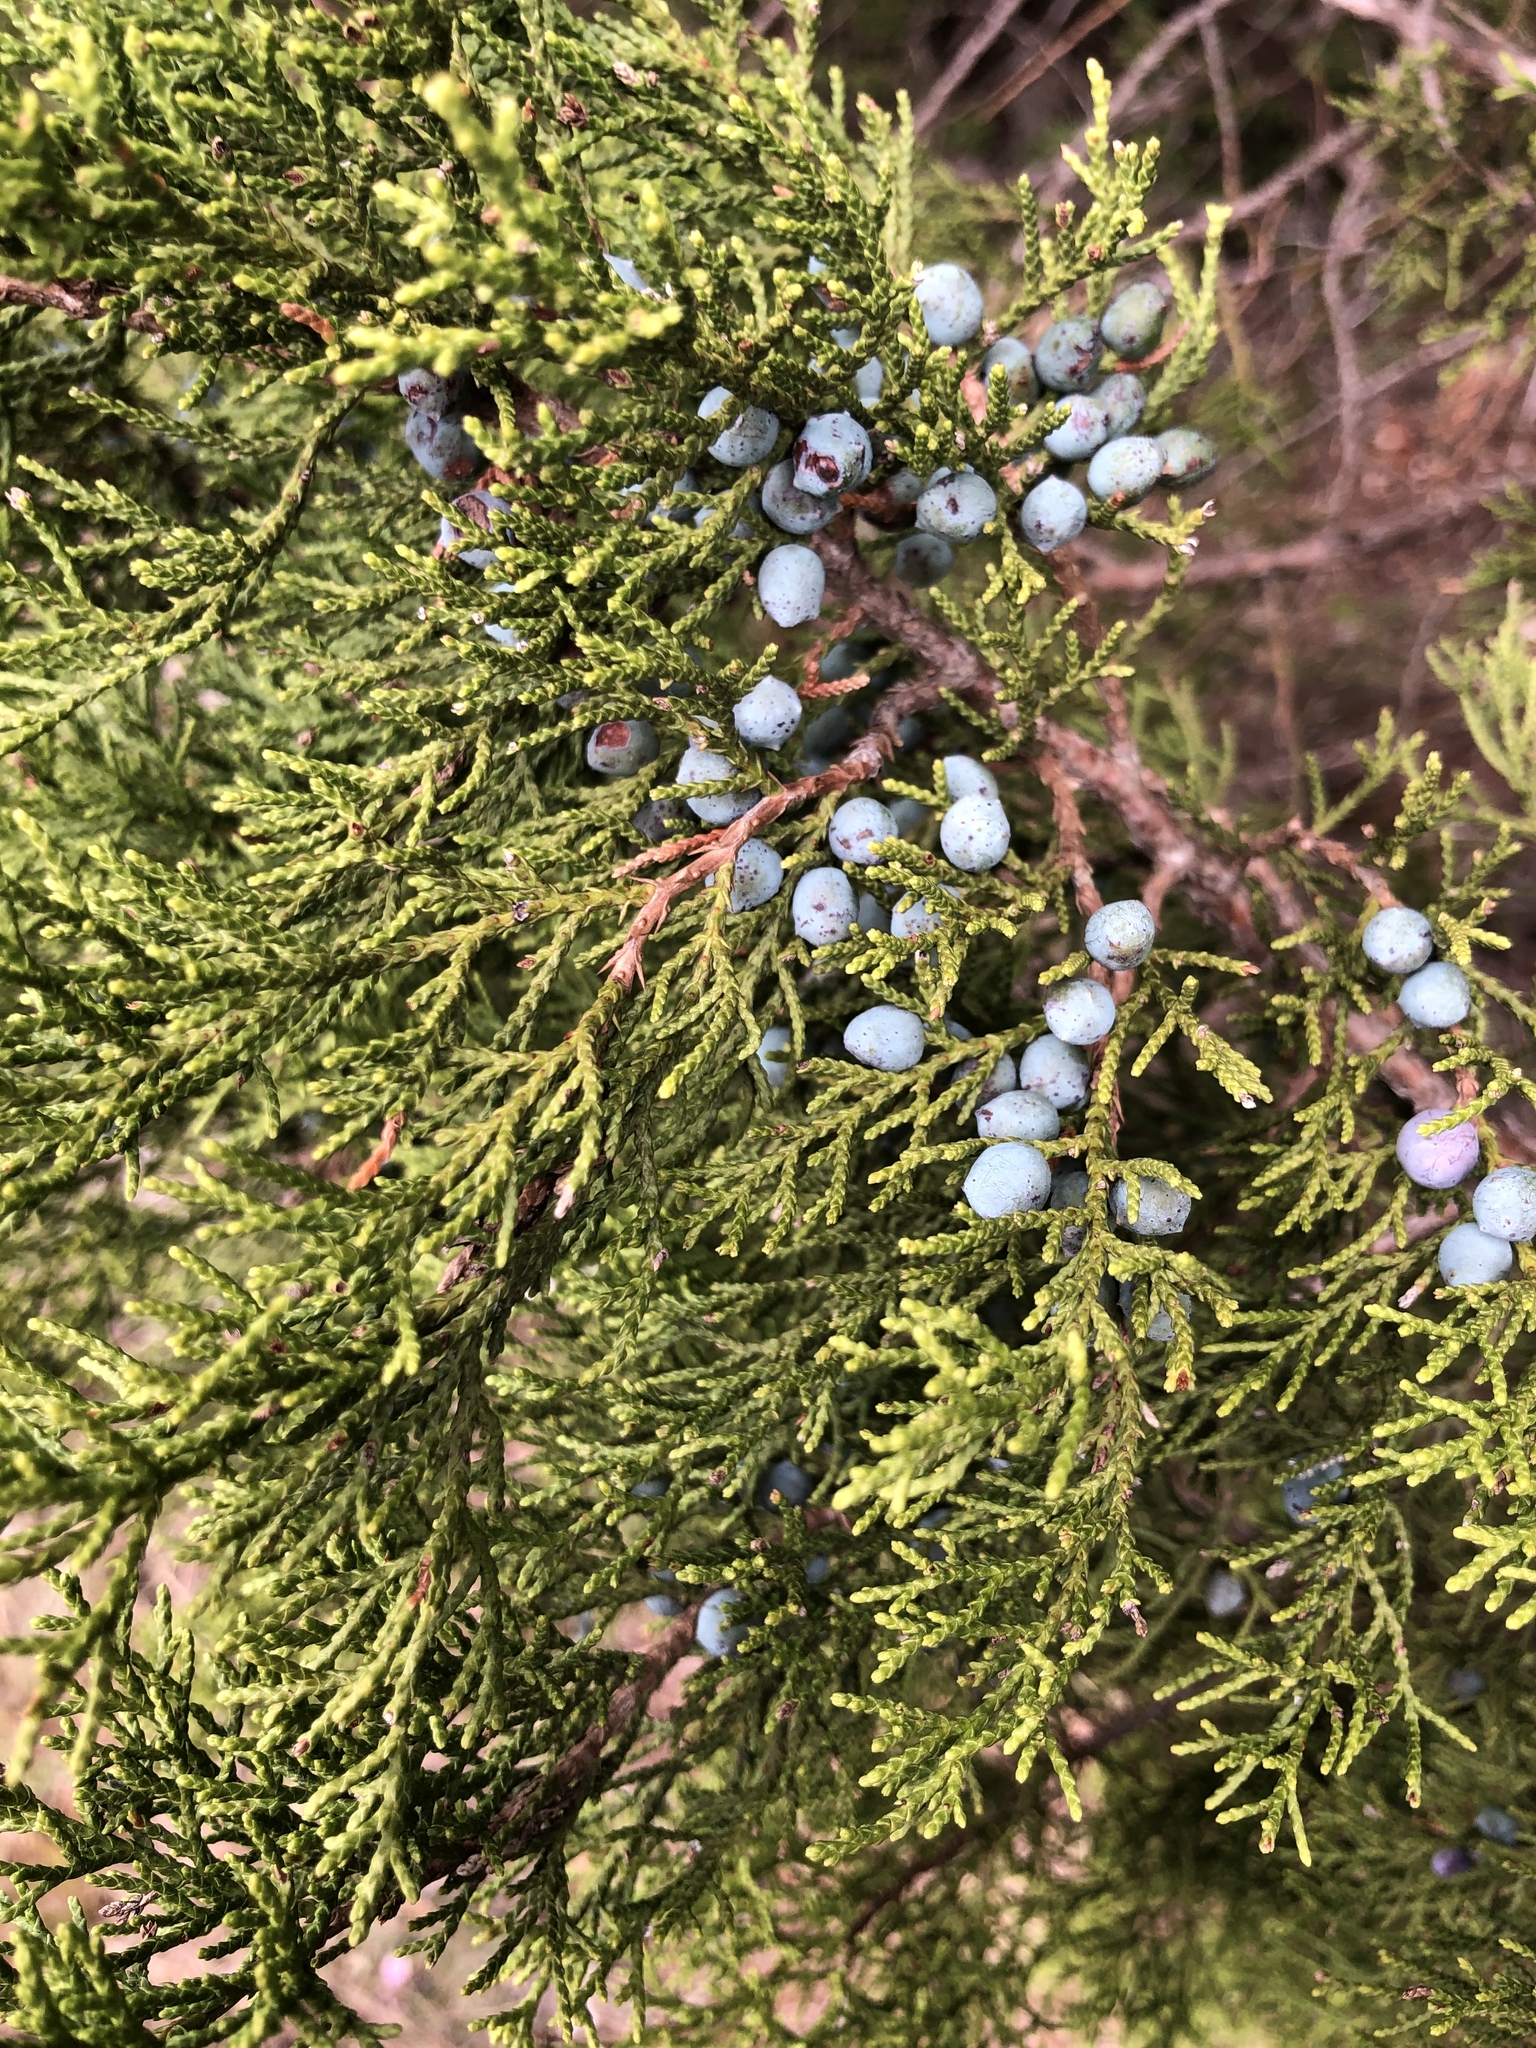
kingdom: Plantae
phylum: Tracheophyta
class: Pinopsida
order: Pinales
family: Cupressaceae
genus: Juniperus
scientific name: Juniperus ashei
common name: Mexican juniper
